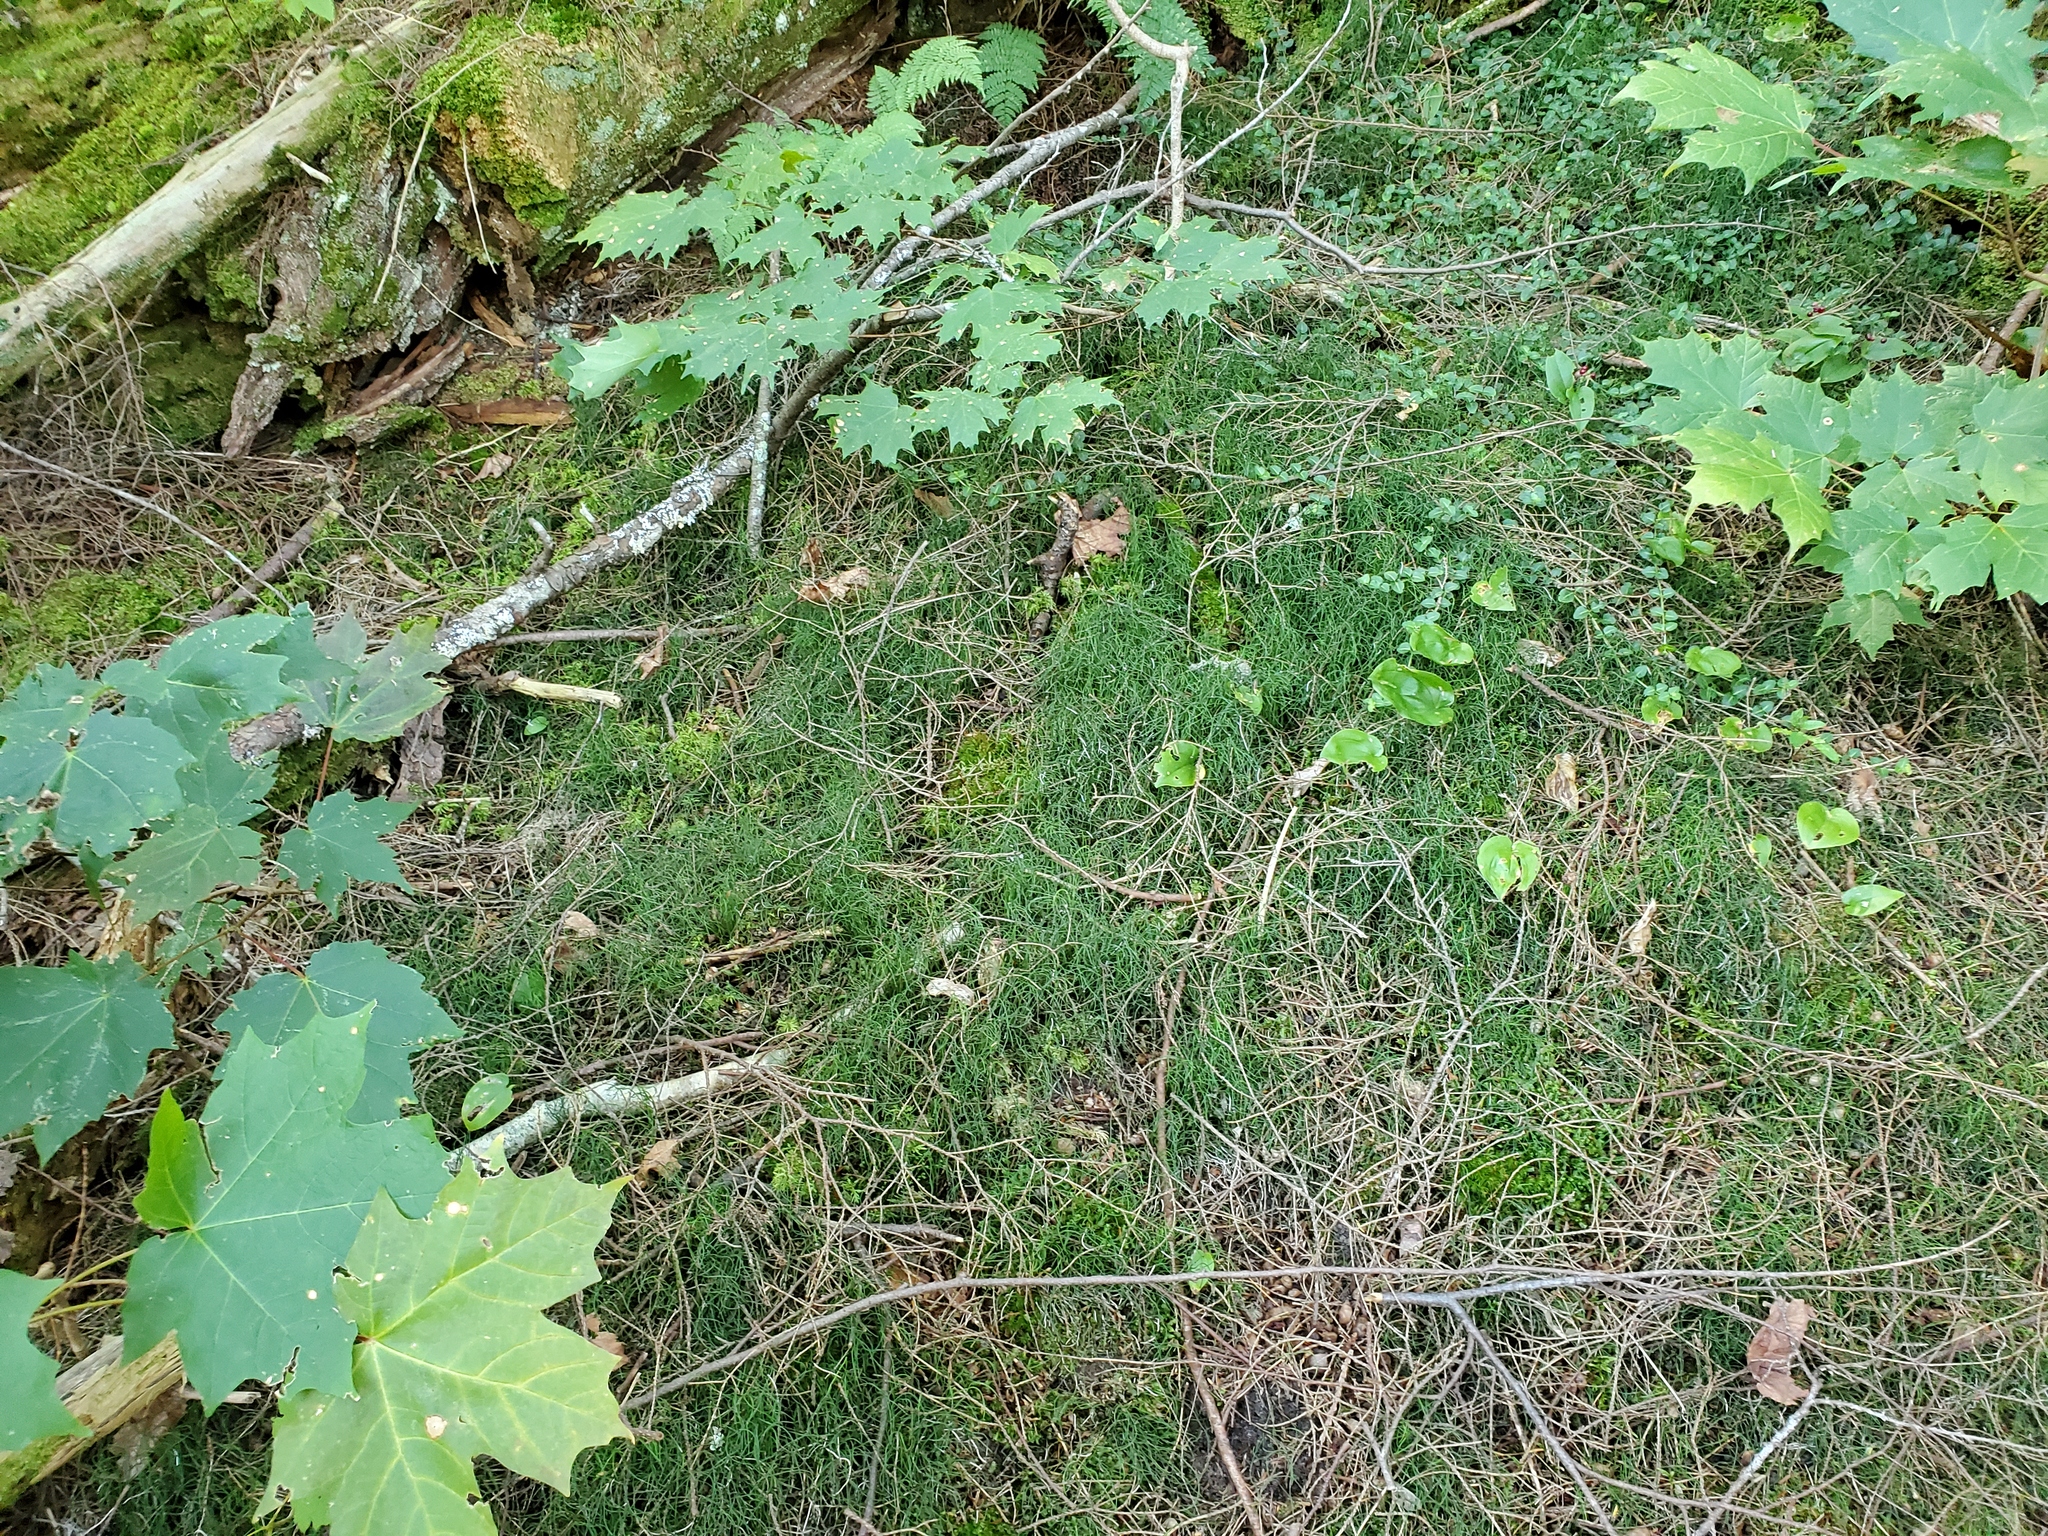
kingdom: Plantae
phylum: Tracheophyta
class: Polypodiopsida
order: Equisetales
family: Equisetaceae
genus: Equisetum
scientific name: Equisetum scirpoides
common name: Delicate horsetail
